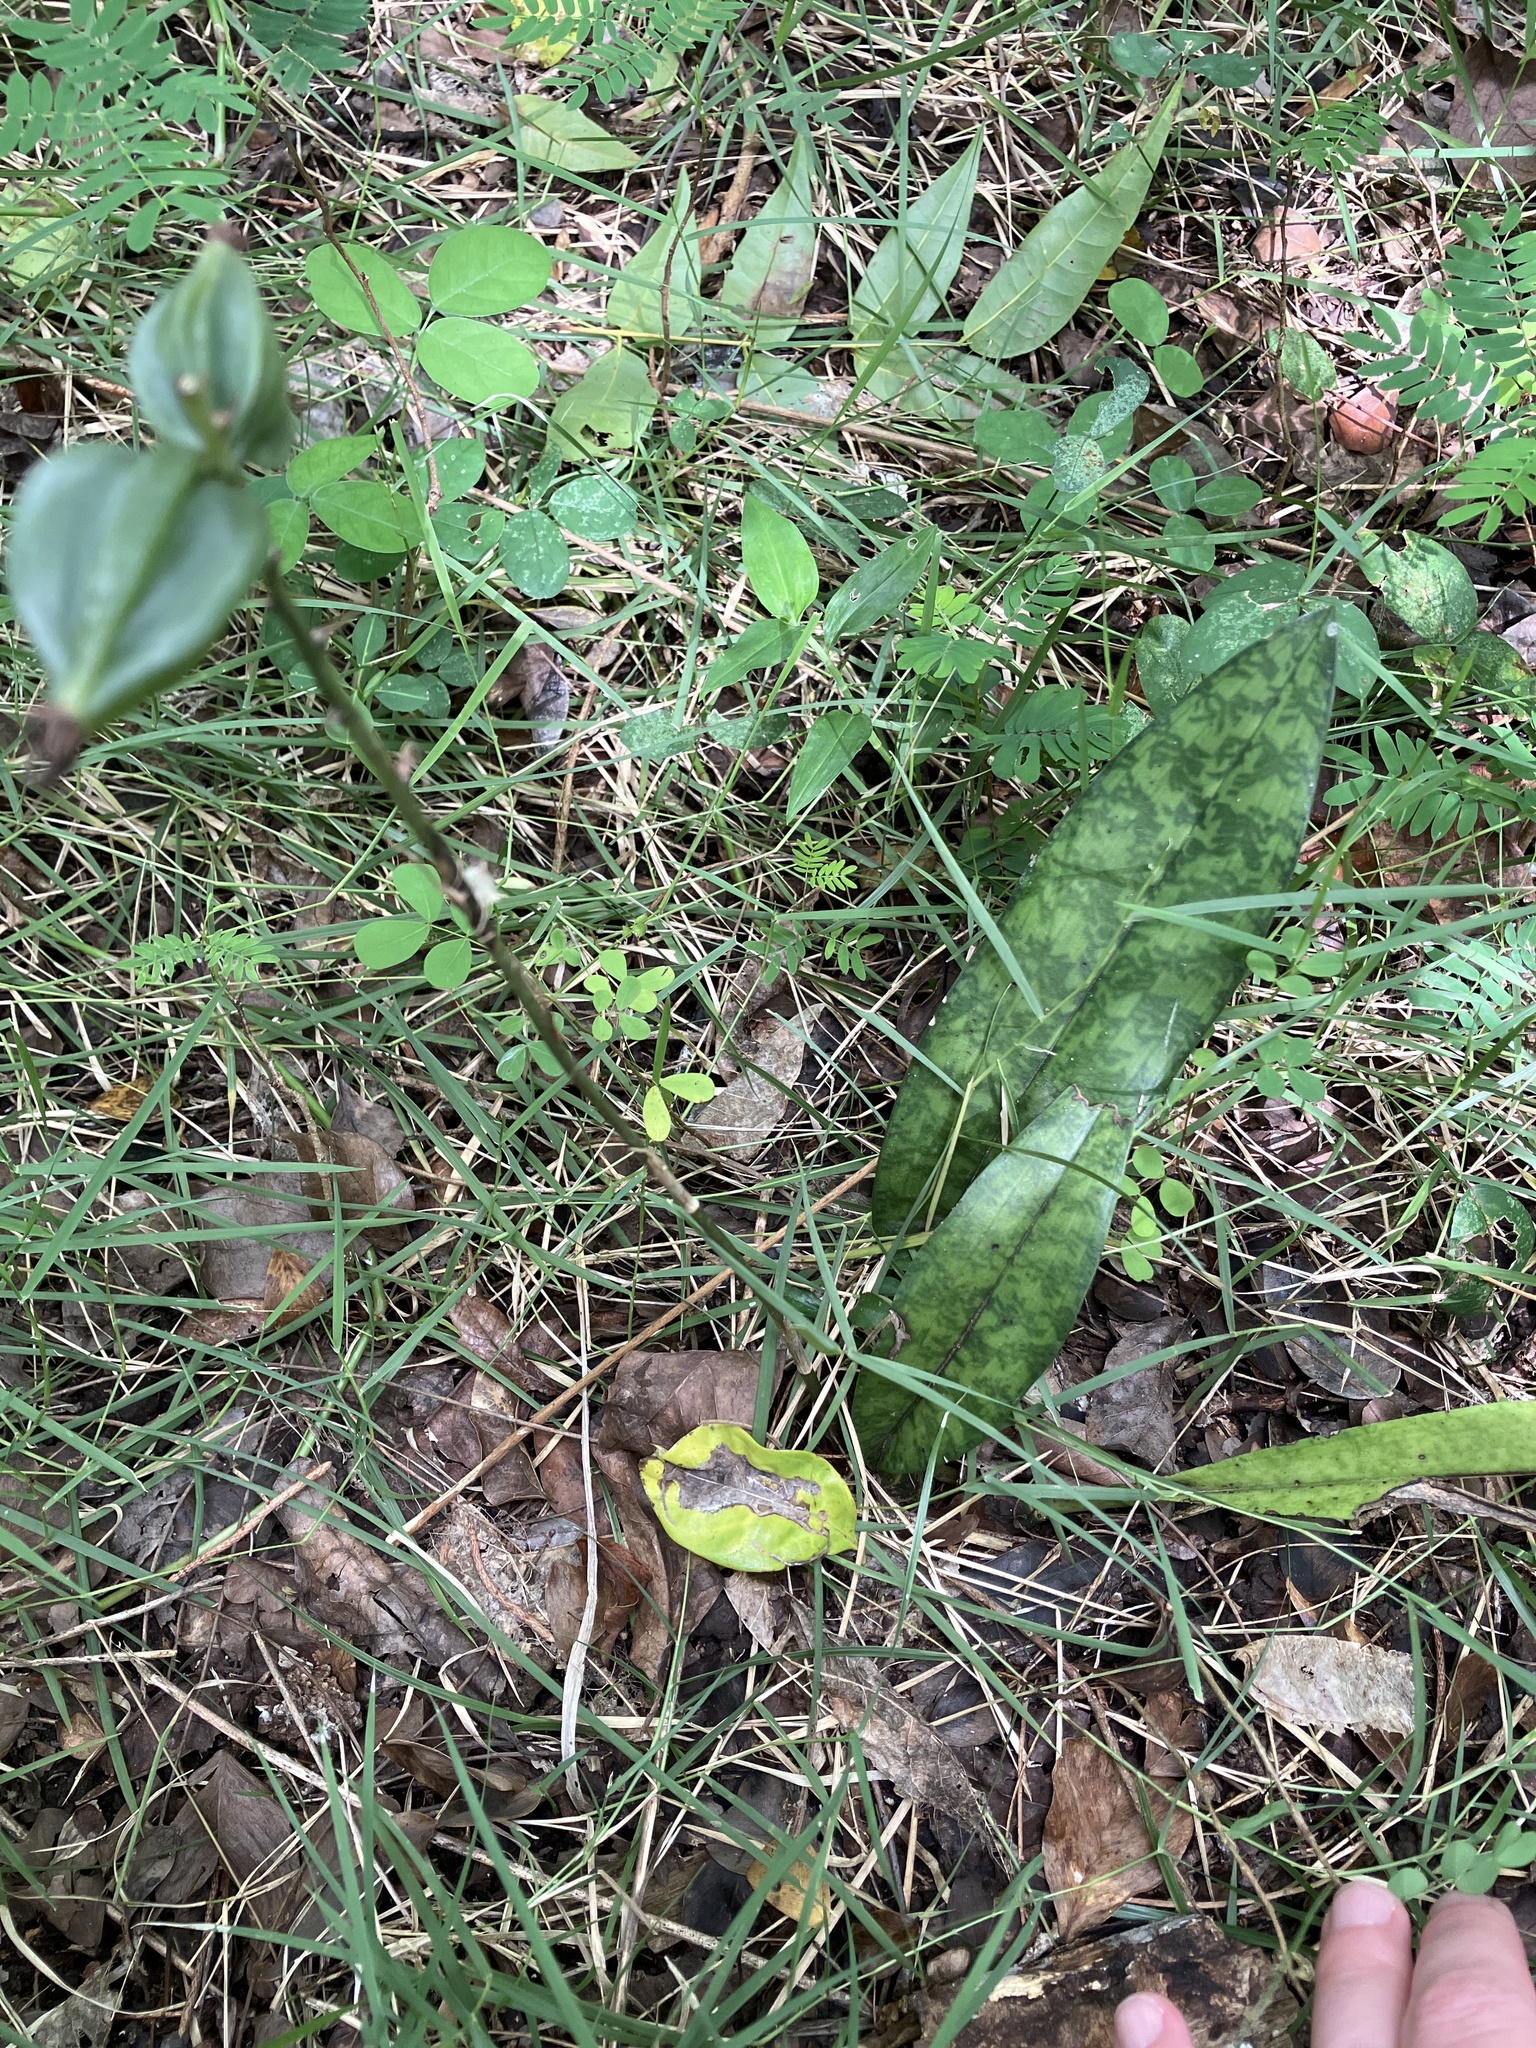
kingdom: Plantae
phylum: Tracheophyta
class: Liliopsida
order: Asparagales
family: Orchidaceae
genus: Eulophia
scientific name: Eulophia maculata
